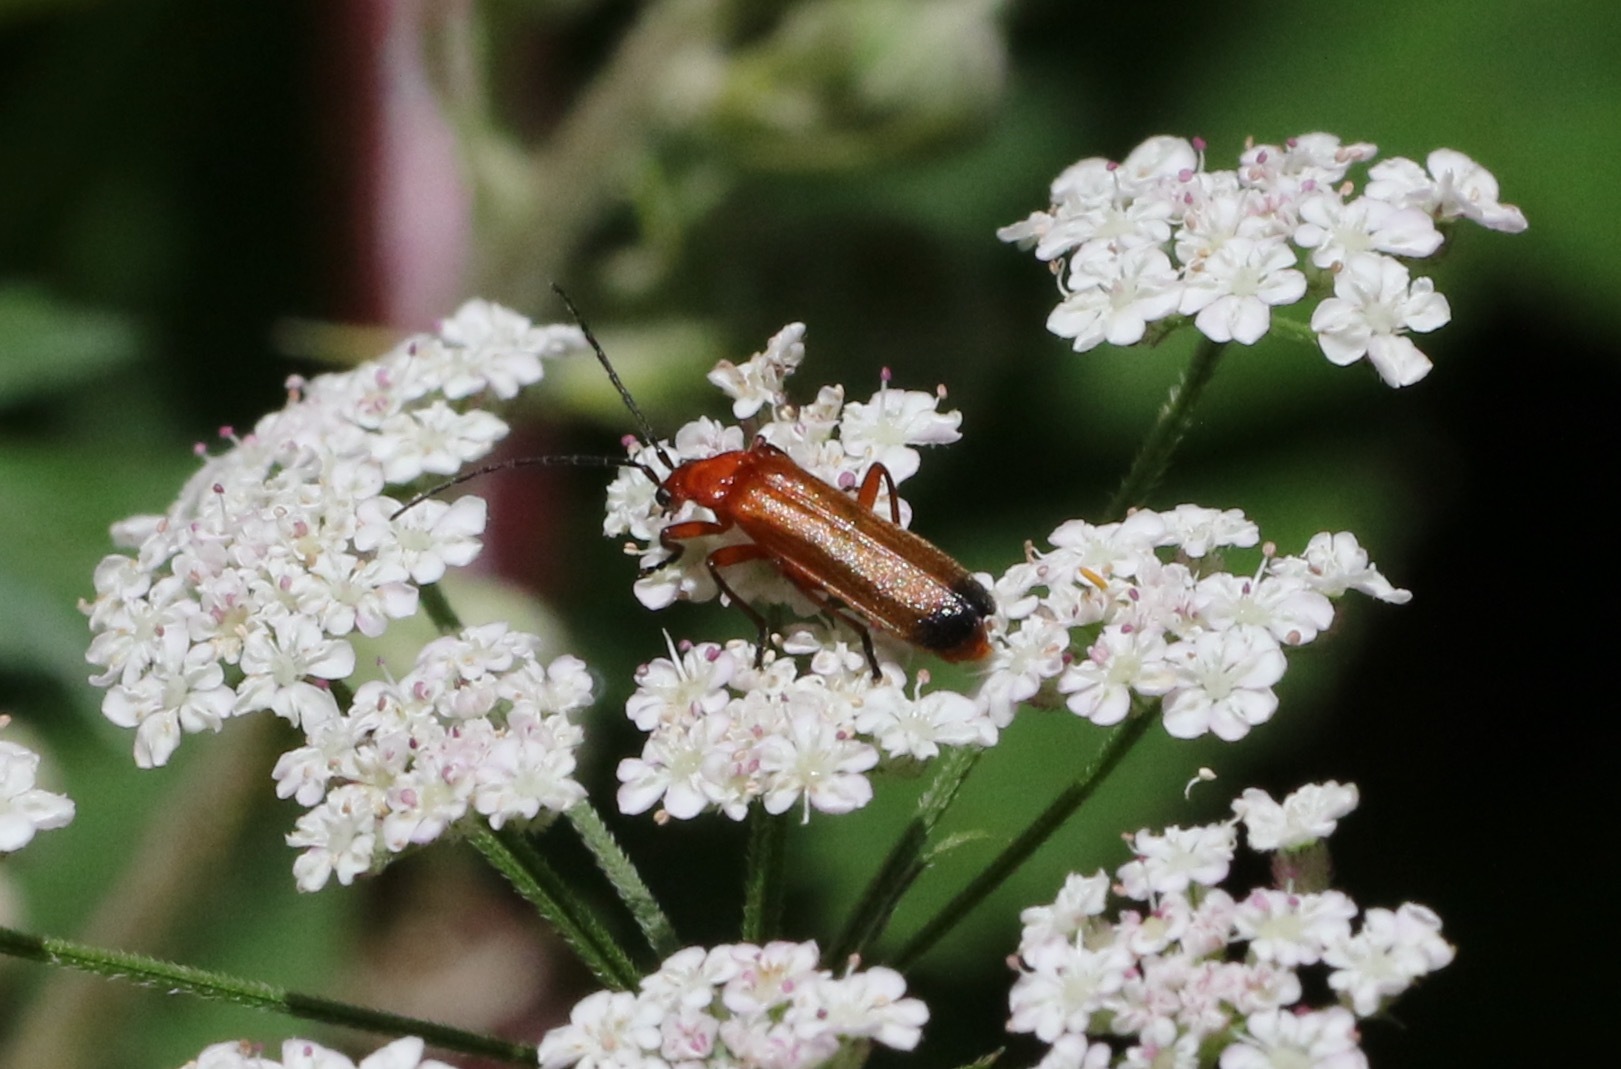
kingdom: Animalia
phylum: Arthropoda
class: Insecta
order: Coleoptera
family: Cantharidae
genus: Rhagonycha
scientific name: Rhagonycha fulva
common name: Common red soldier beetle
